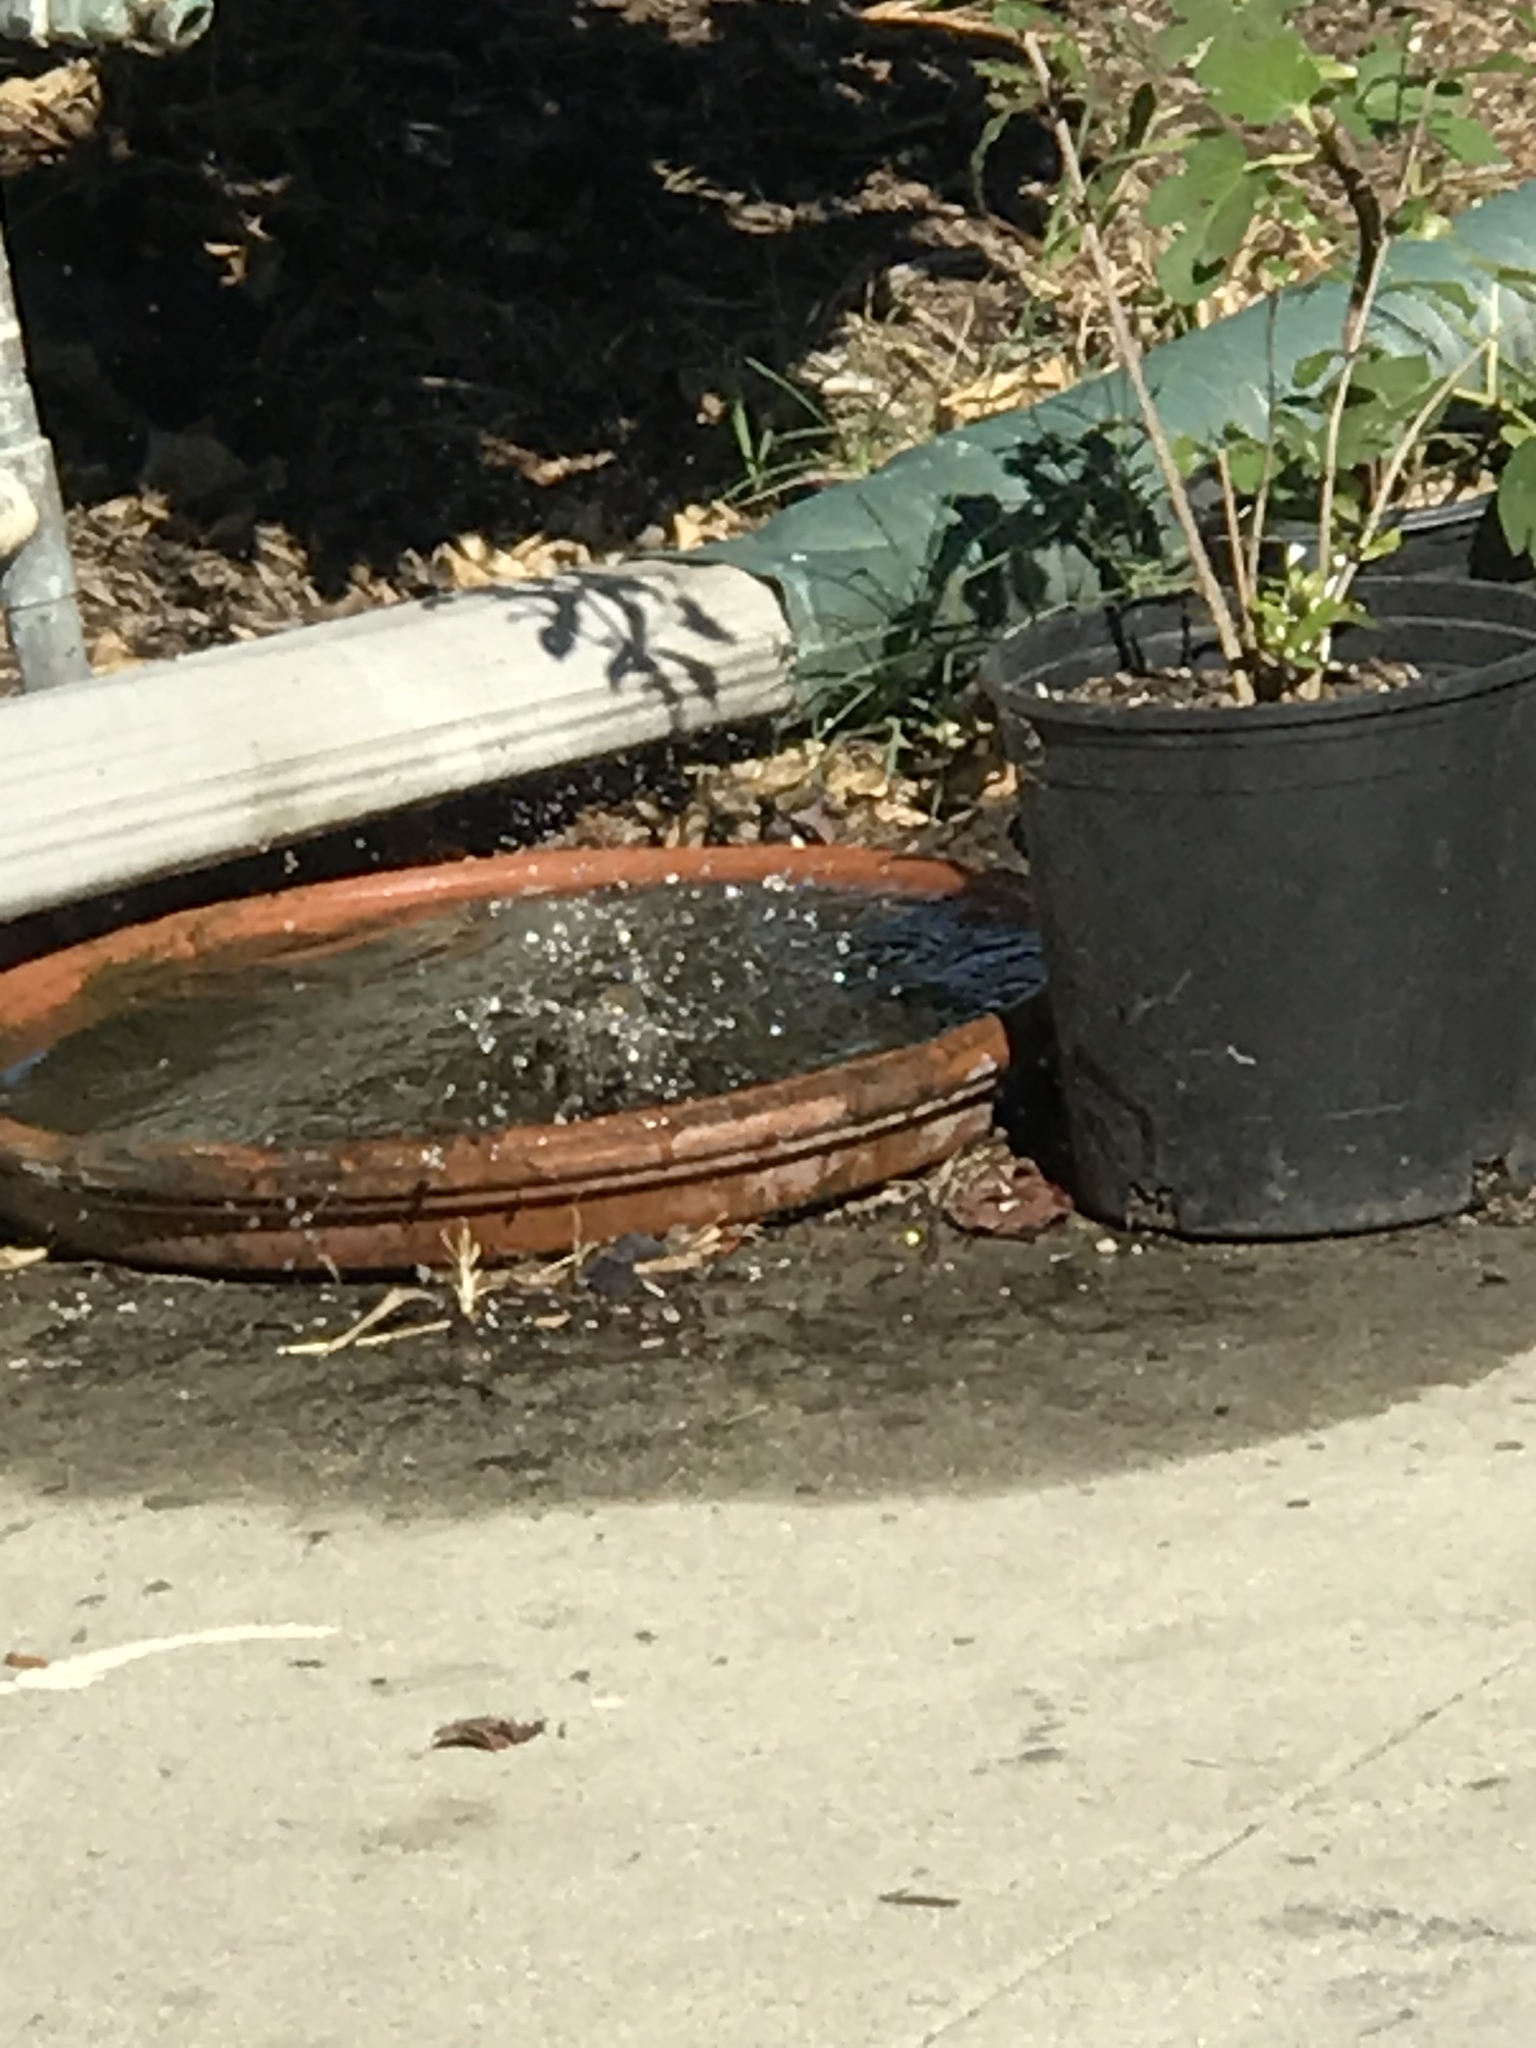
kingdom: Animalia
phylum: Chordata
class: Aves
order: Passeriformes
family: Fringillidae
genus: Haemorhous
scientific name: Haemorhous mexicanus
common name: House finch
